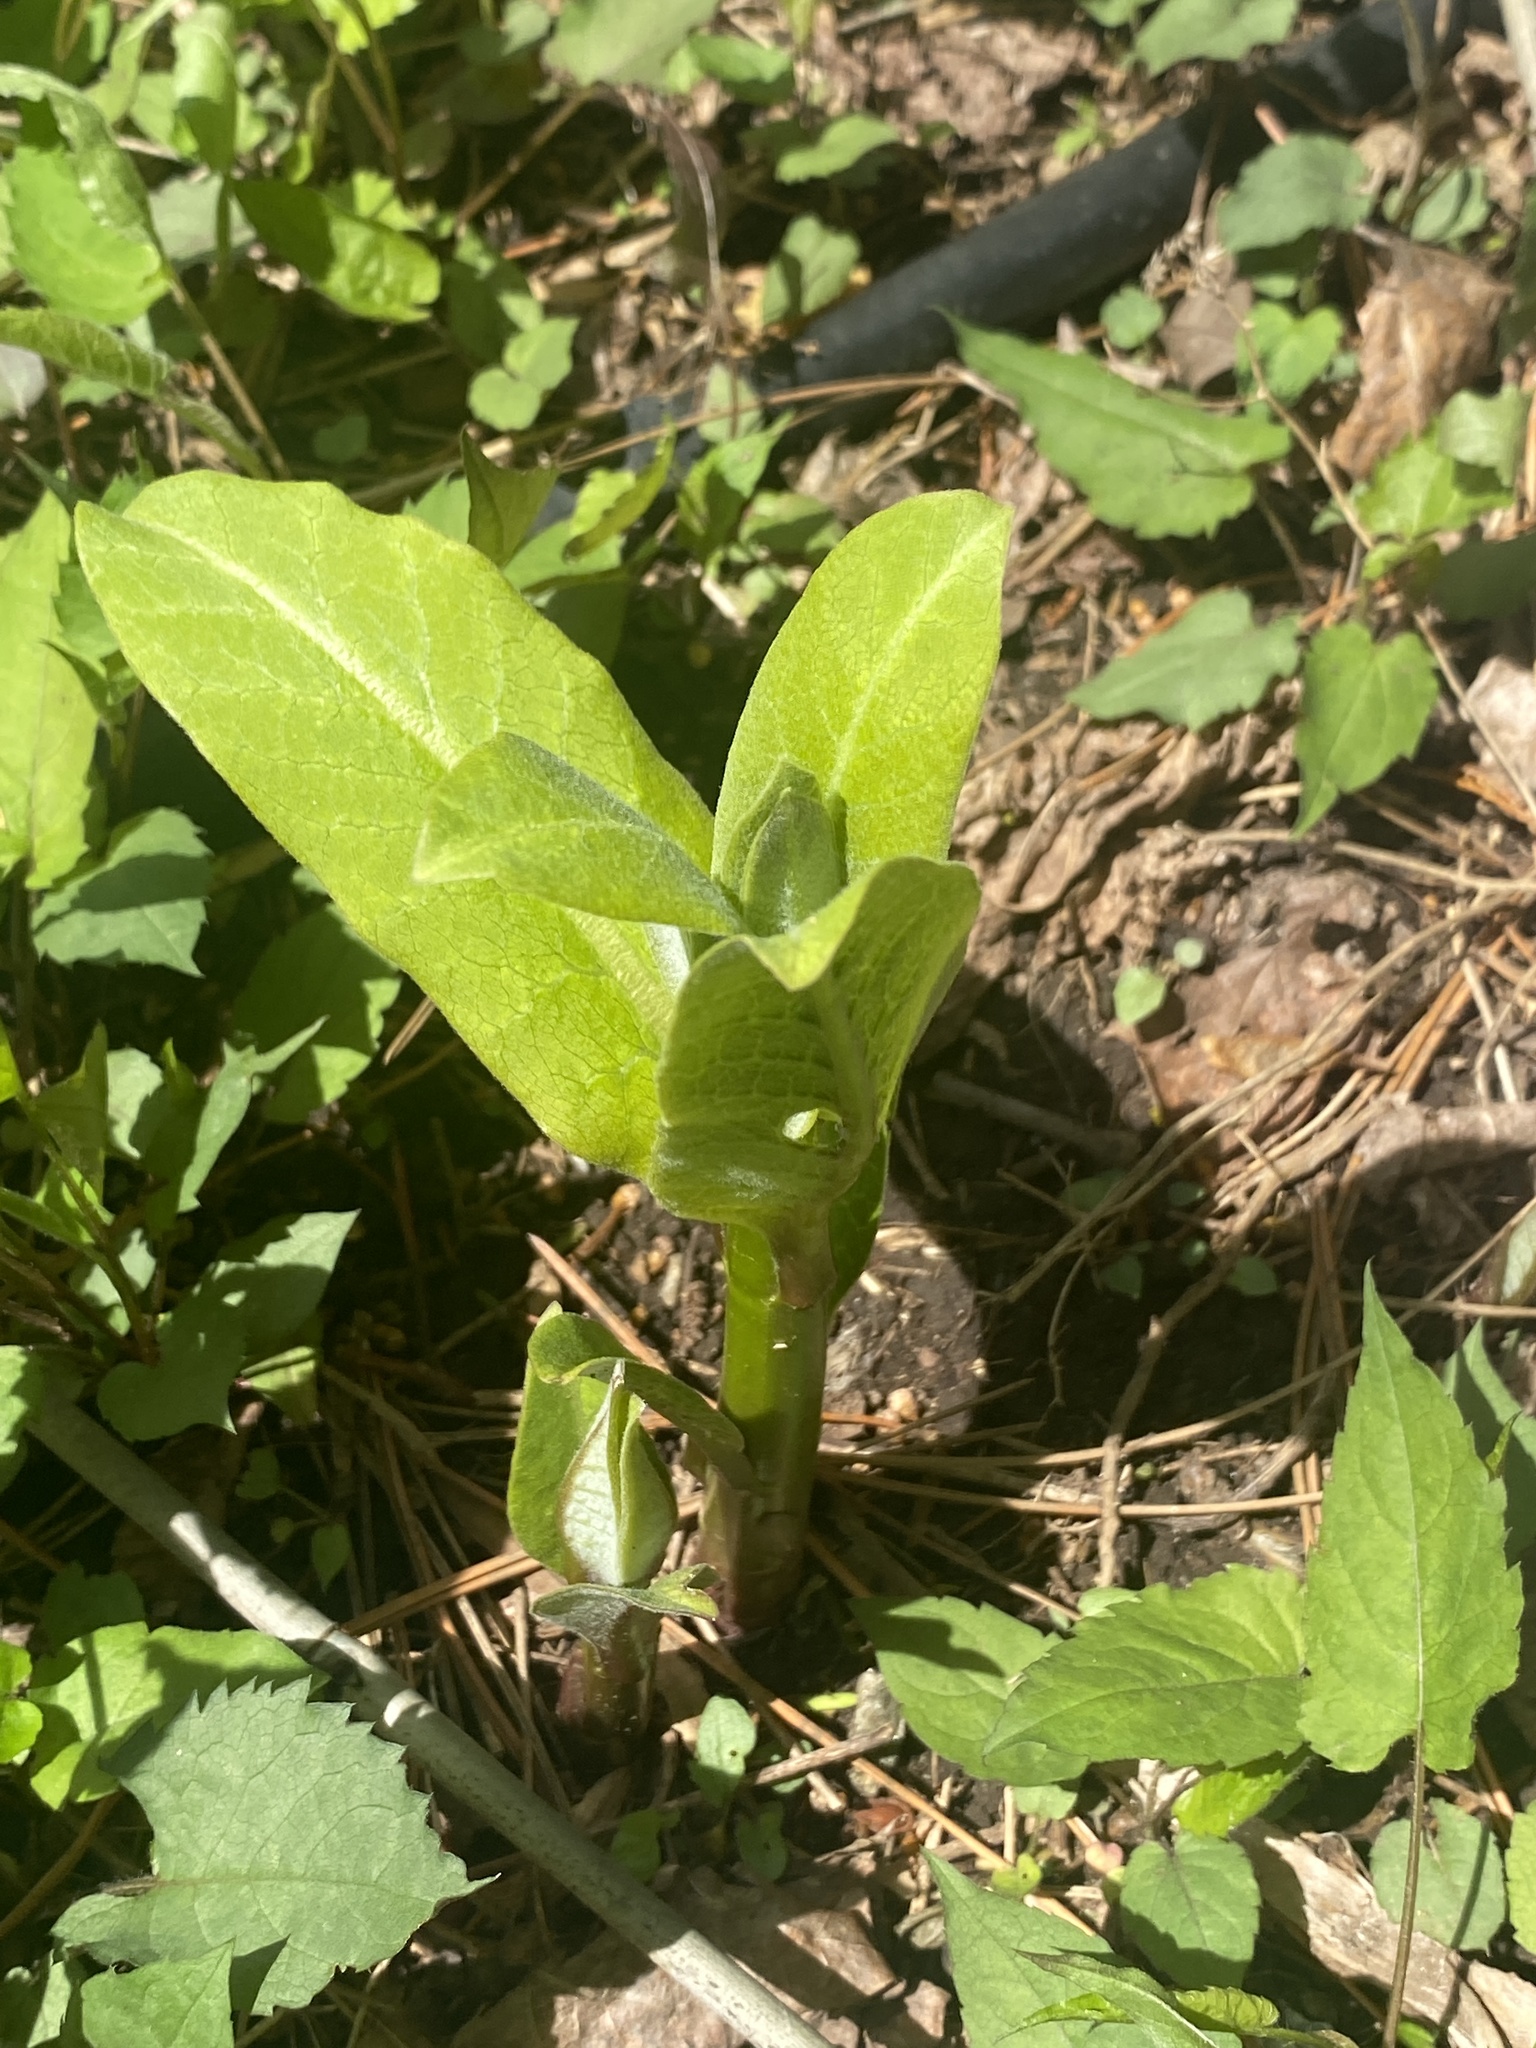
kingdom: Plantae
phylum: Tracheophyta
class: Magnoliopsida
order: Gentianales
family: Apocynaceae
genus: Asclepias
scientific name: Asclepias syriaca
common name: Common milkweed
